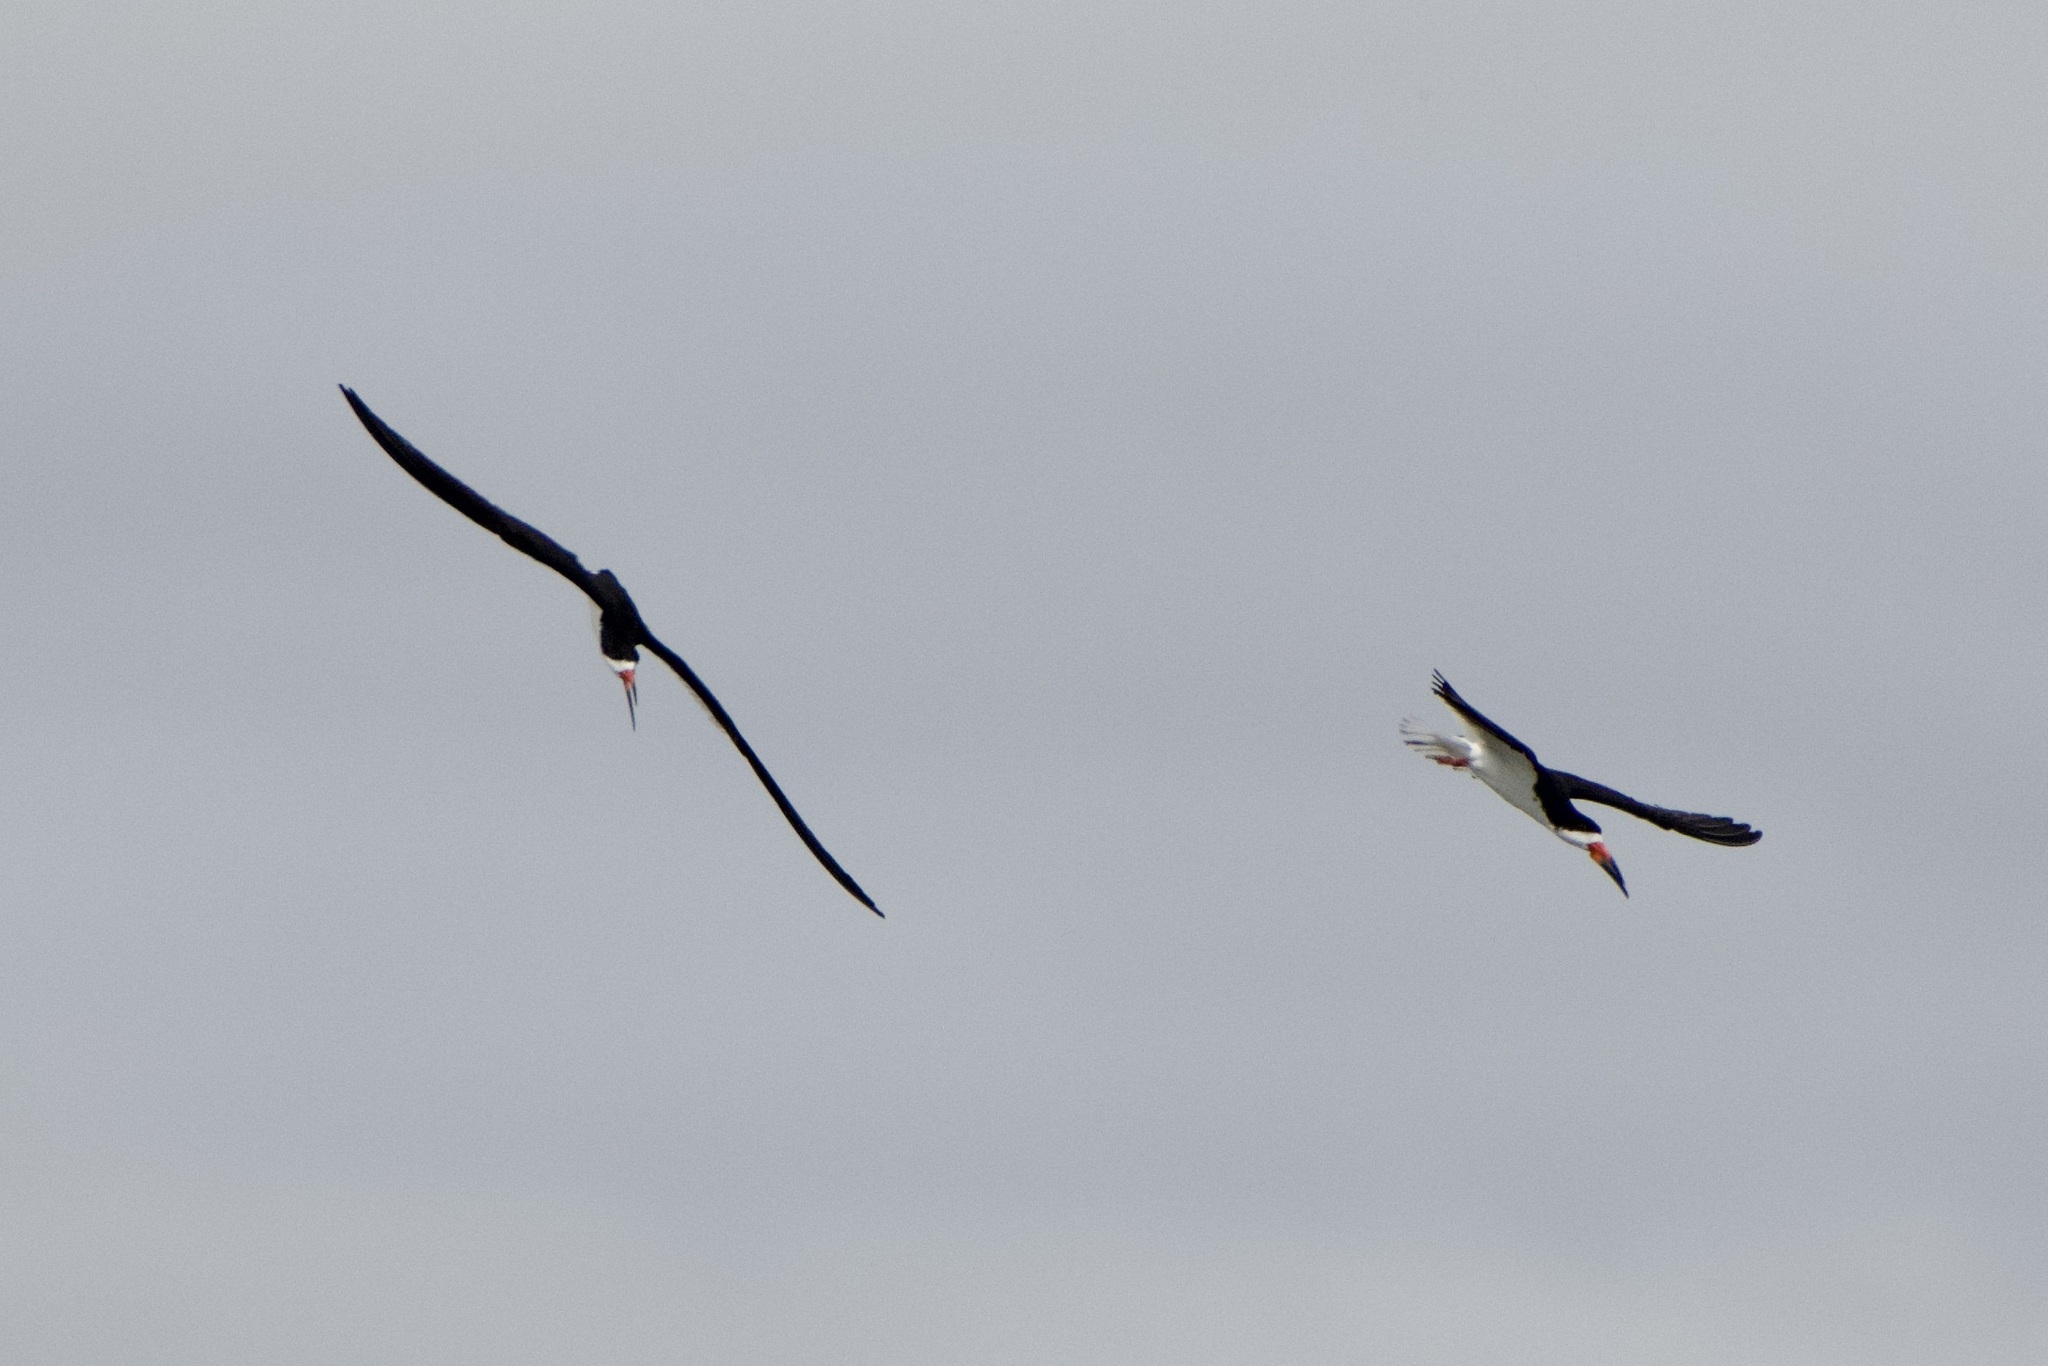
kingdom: Animalia
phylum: Chordata
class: Aves
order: Charadriiformes
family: Laridae
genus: Rynchops
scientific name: Rynchops niger
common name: Black skimmer
